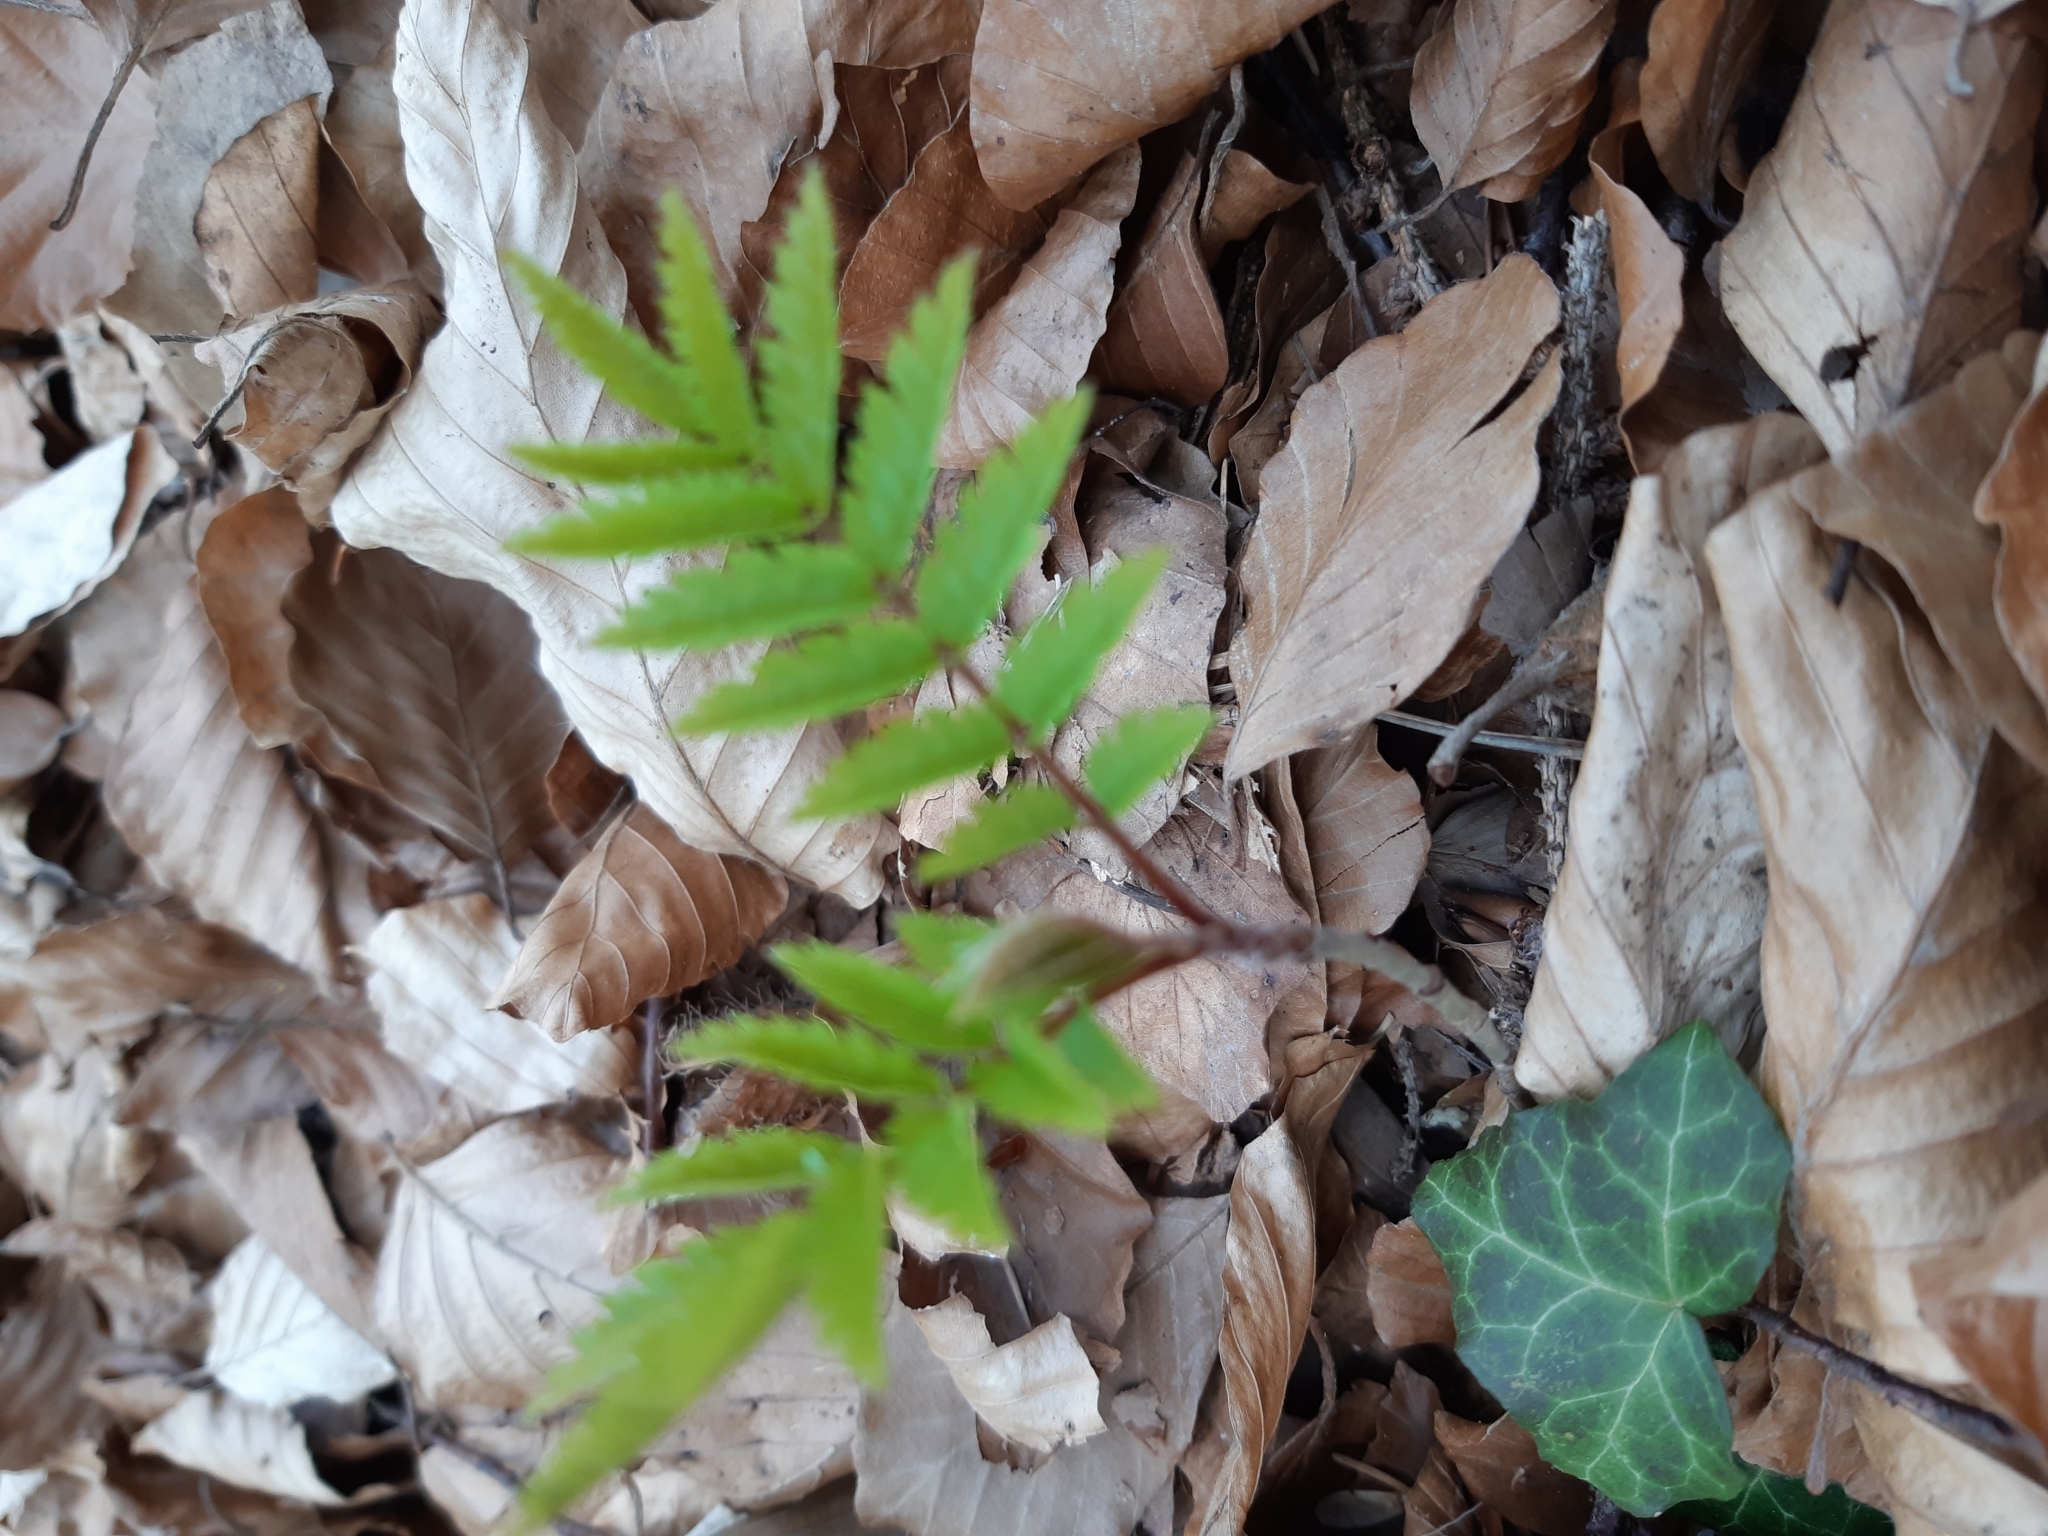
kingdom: Plantae
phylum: Tracheophyta
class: Magnoliopsida
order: Rosales
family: Rosaceae
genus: Sorbus
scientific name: Sorbus aucuparia
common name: Rowan
